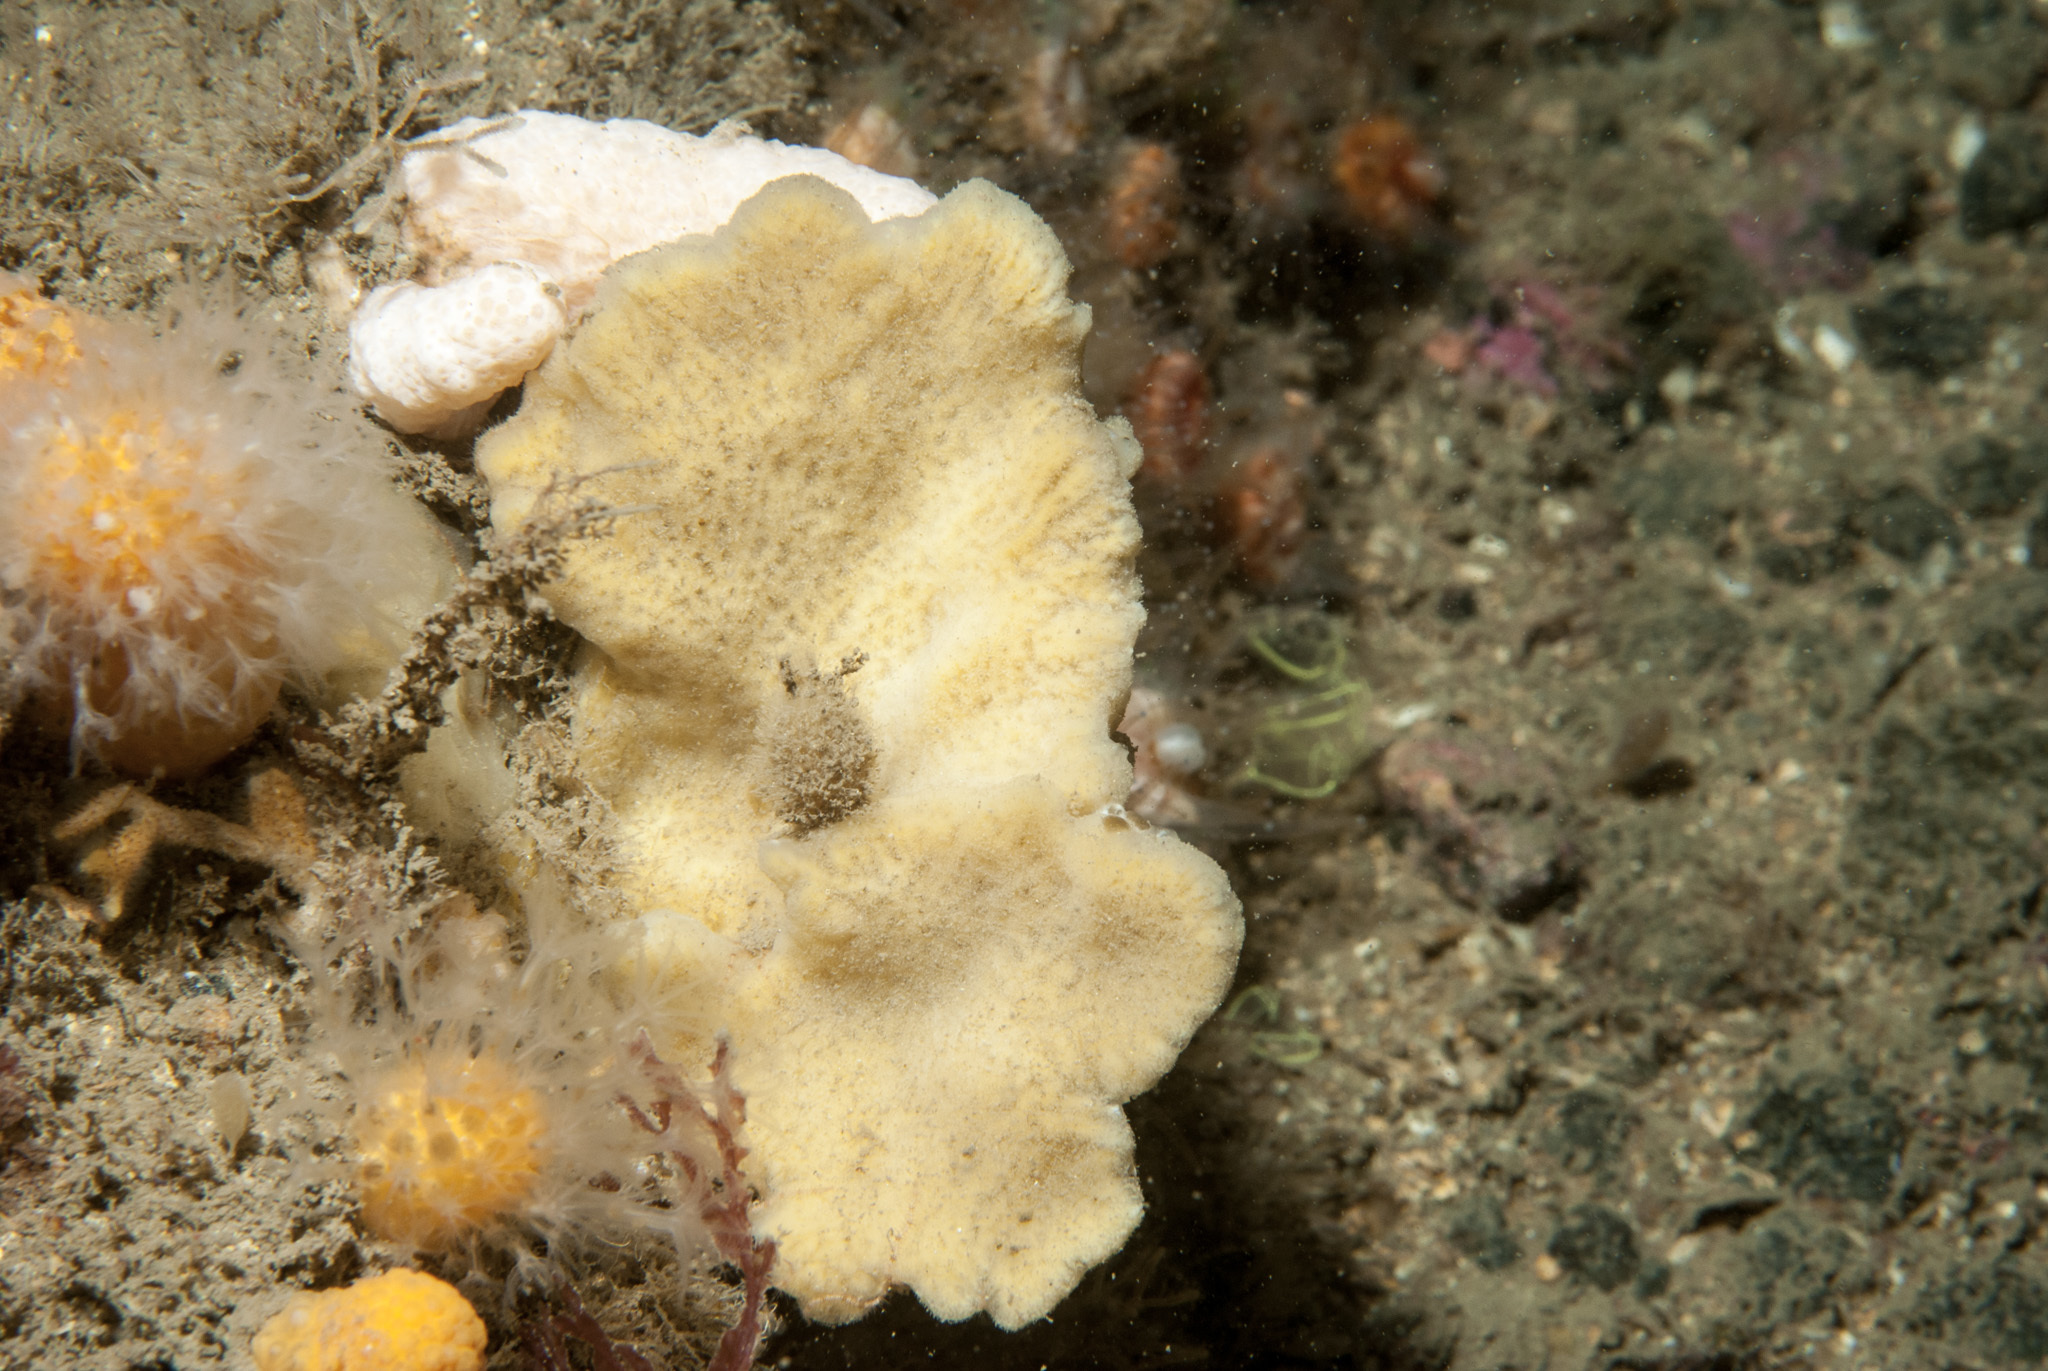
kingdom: Animalia
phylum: Porifera
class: Demospongiae
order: Poecilosclerida
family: Microcionidae
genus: Clathria
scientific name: Clathria barleei
